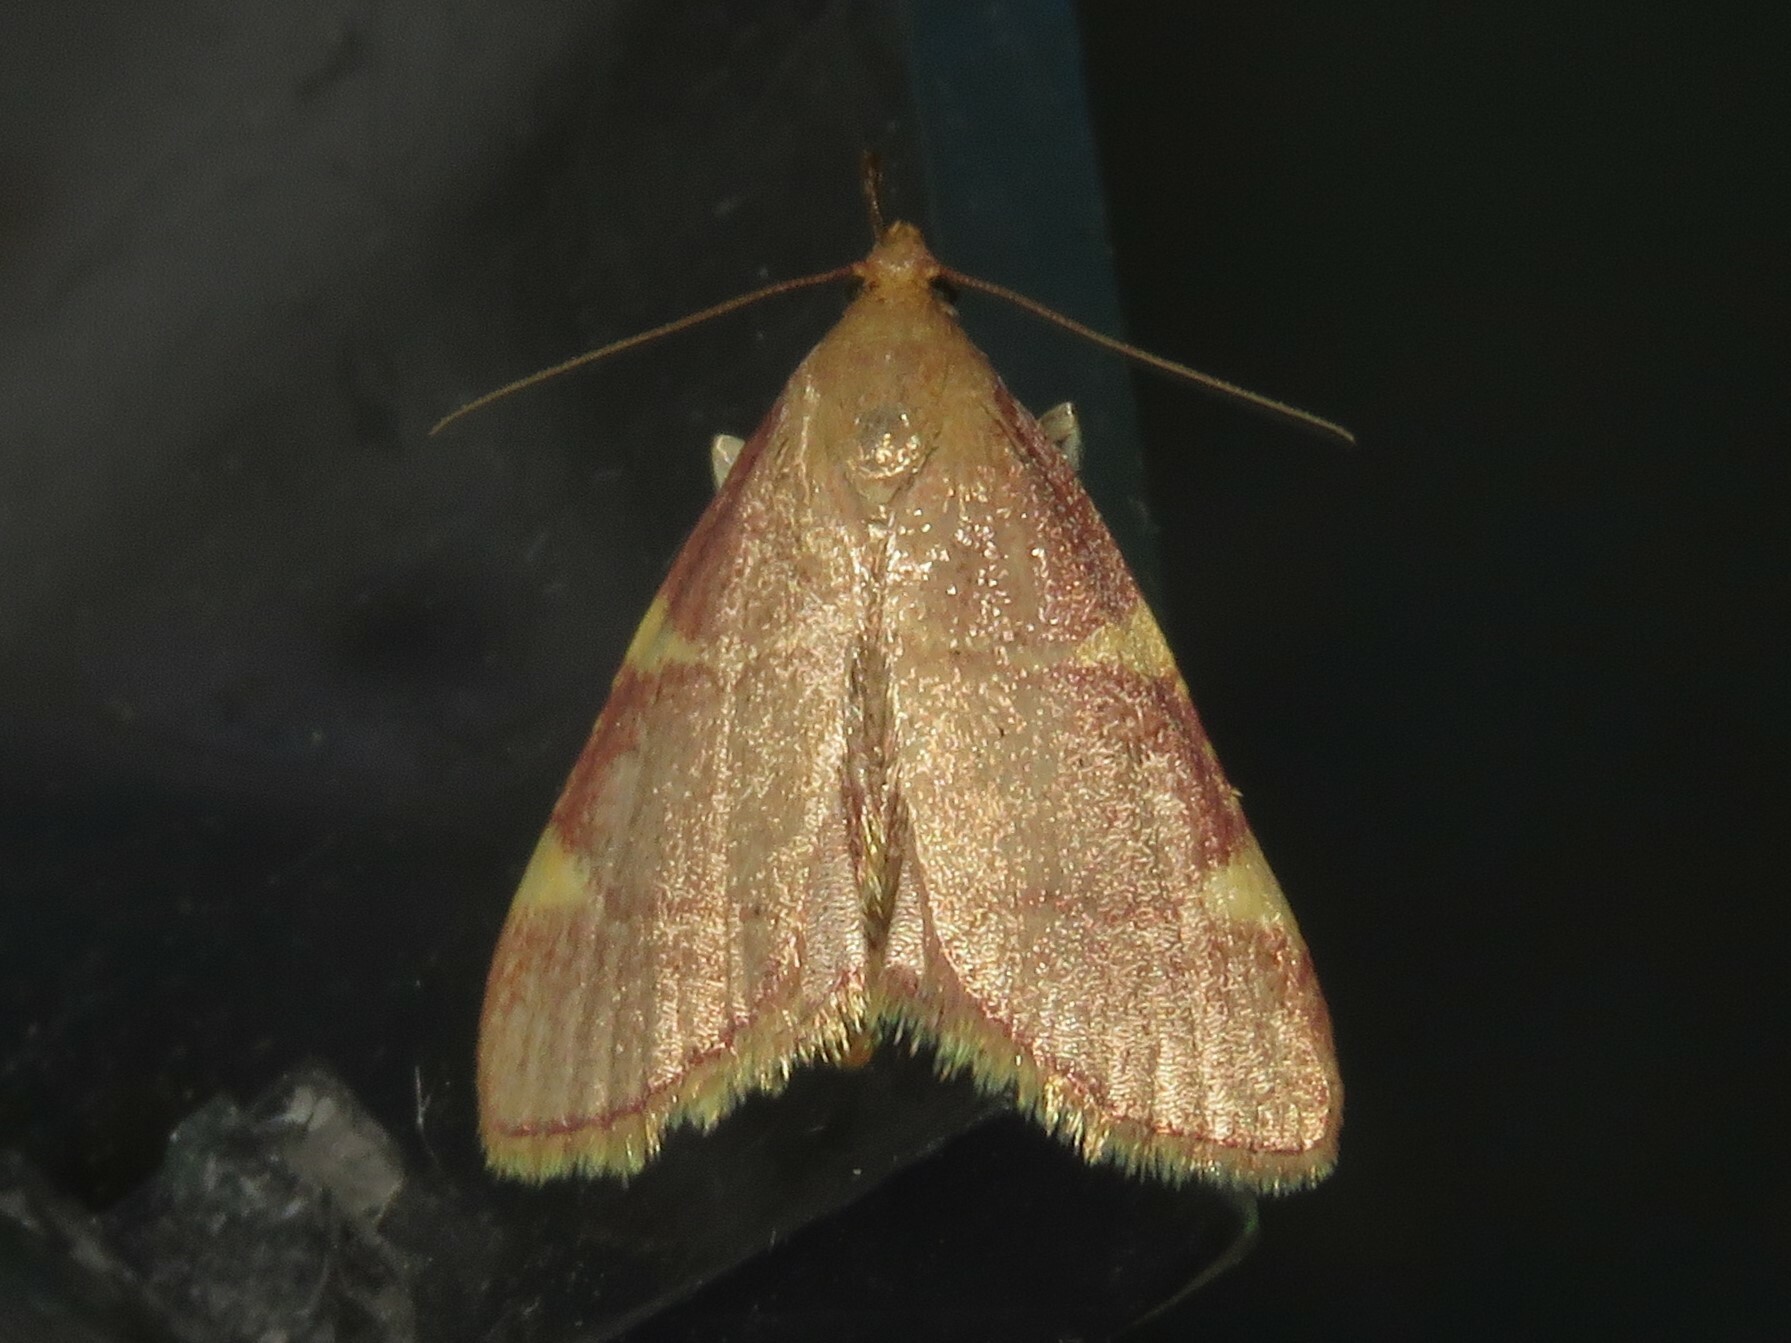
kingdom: Animalia
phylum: Arthropoda
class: Insecta
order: Lepidoptera
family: Pyralidae
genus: Hypsopygia
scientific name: Hypsopygia olinalis
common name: Yellow-fringed dolichomia moth
